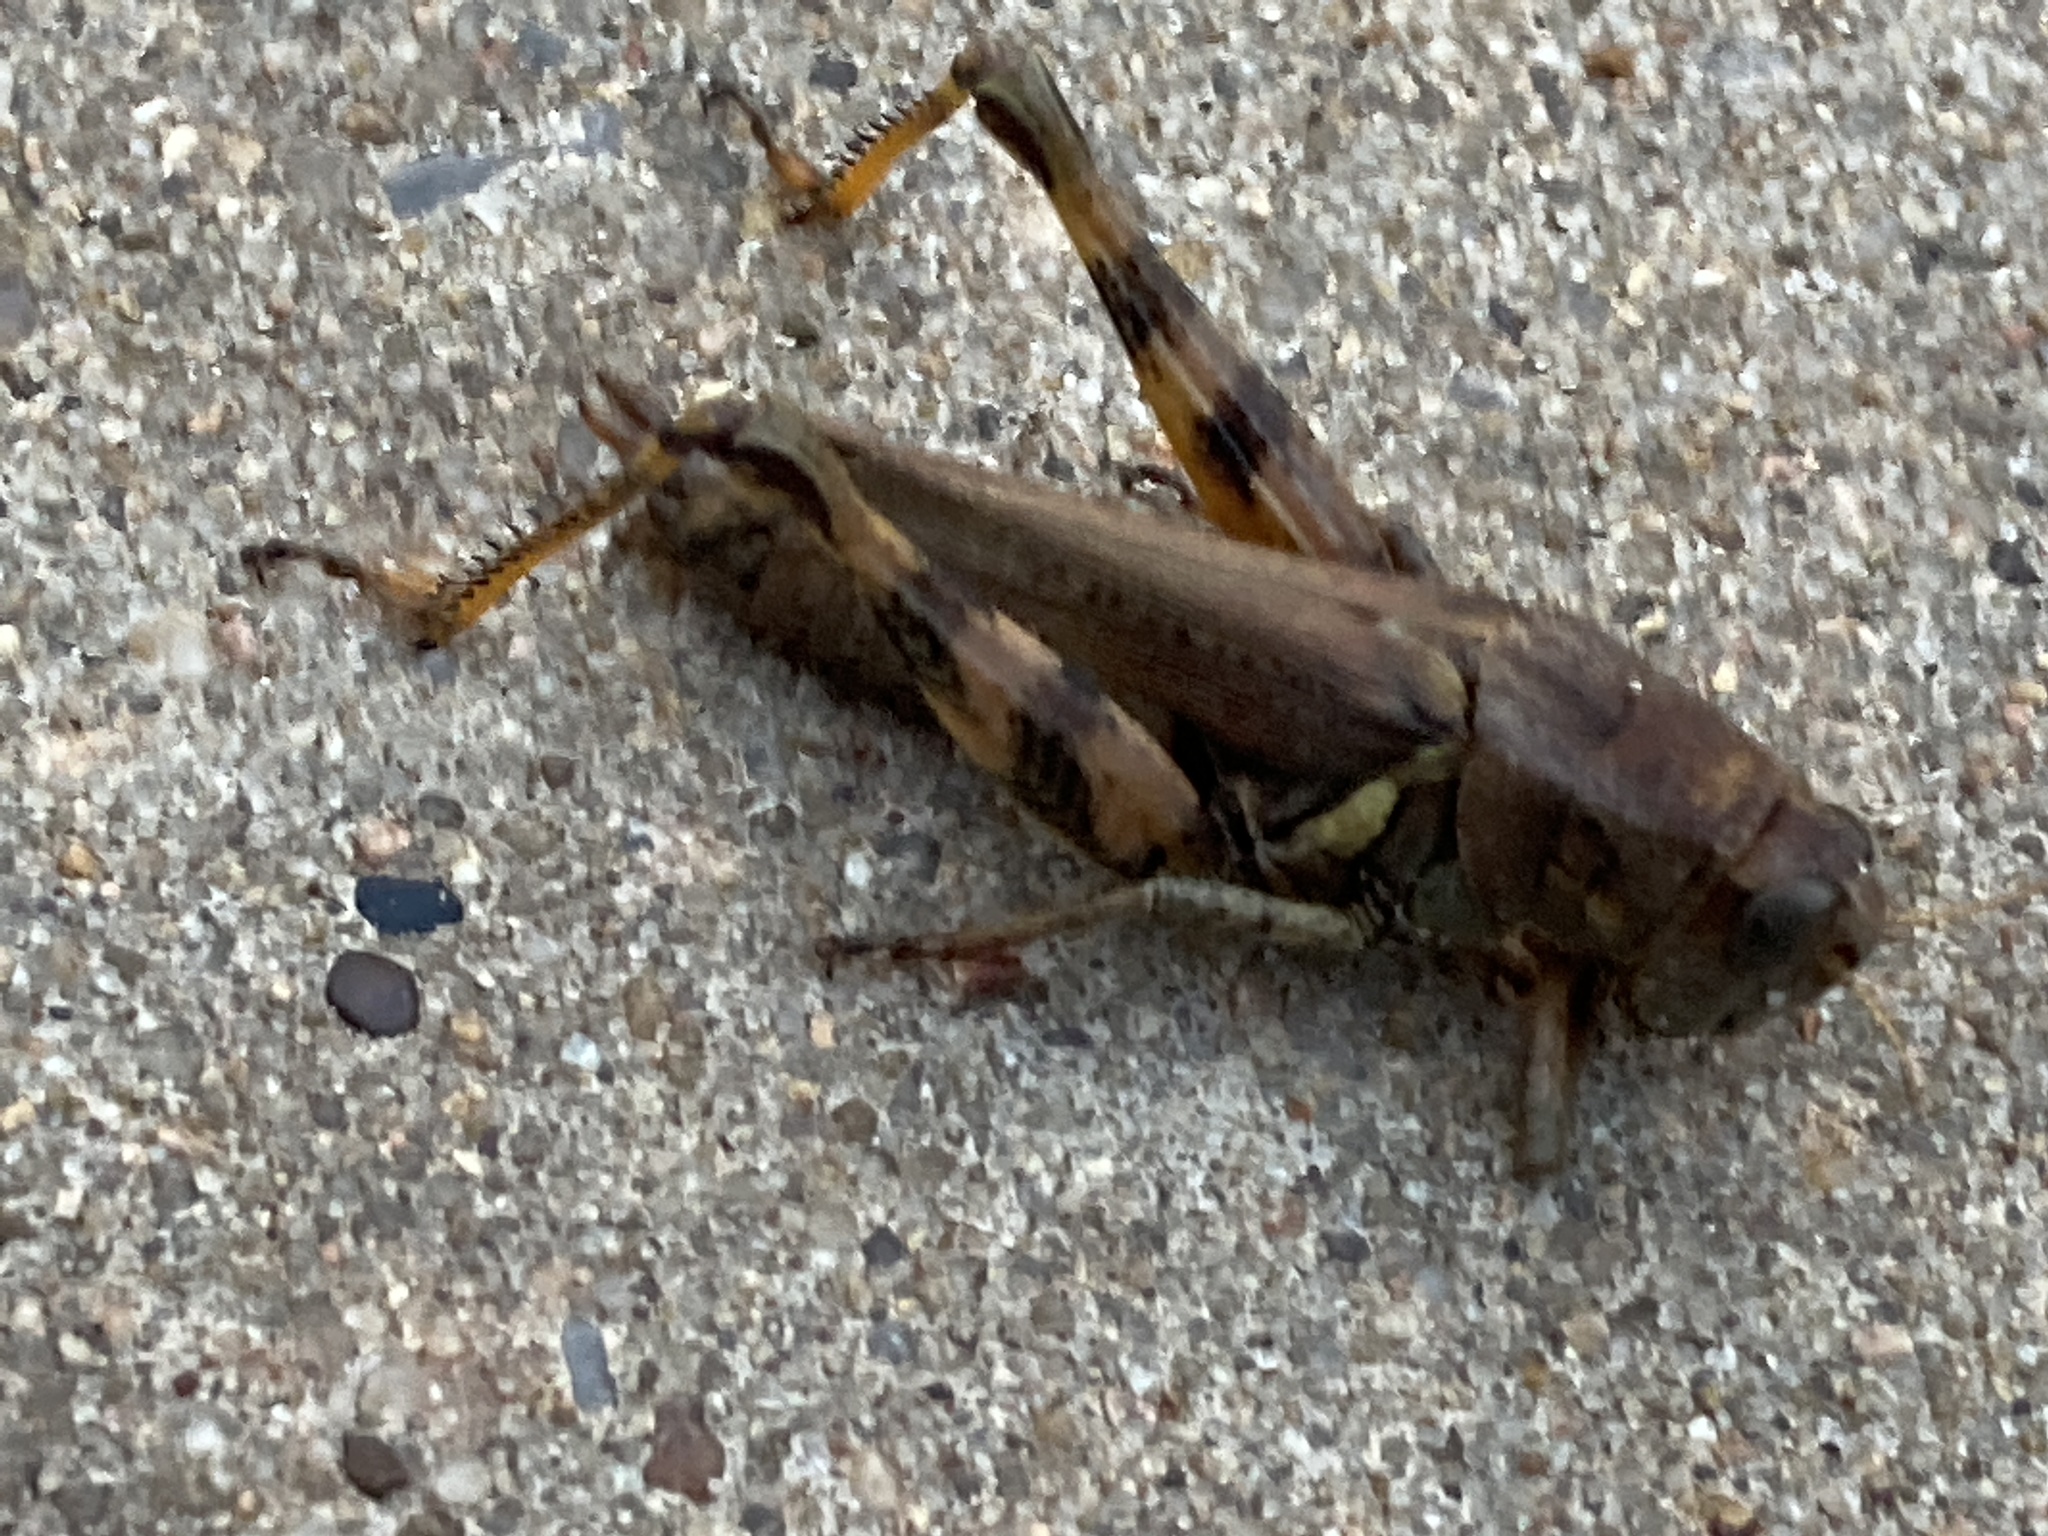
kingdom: Animalia
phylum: Arthropoda
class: Insecta
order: Orthoptera
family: Acrididae
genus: Melanoplus
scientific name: Melanoplus ponderosus
